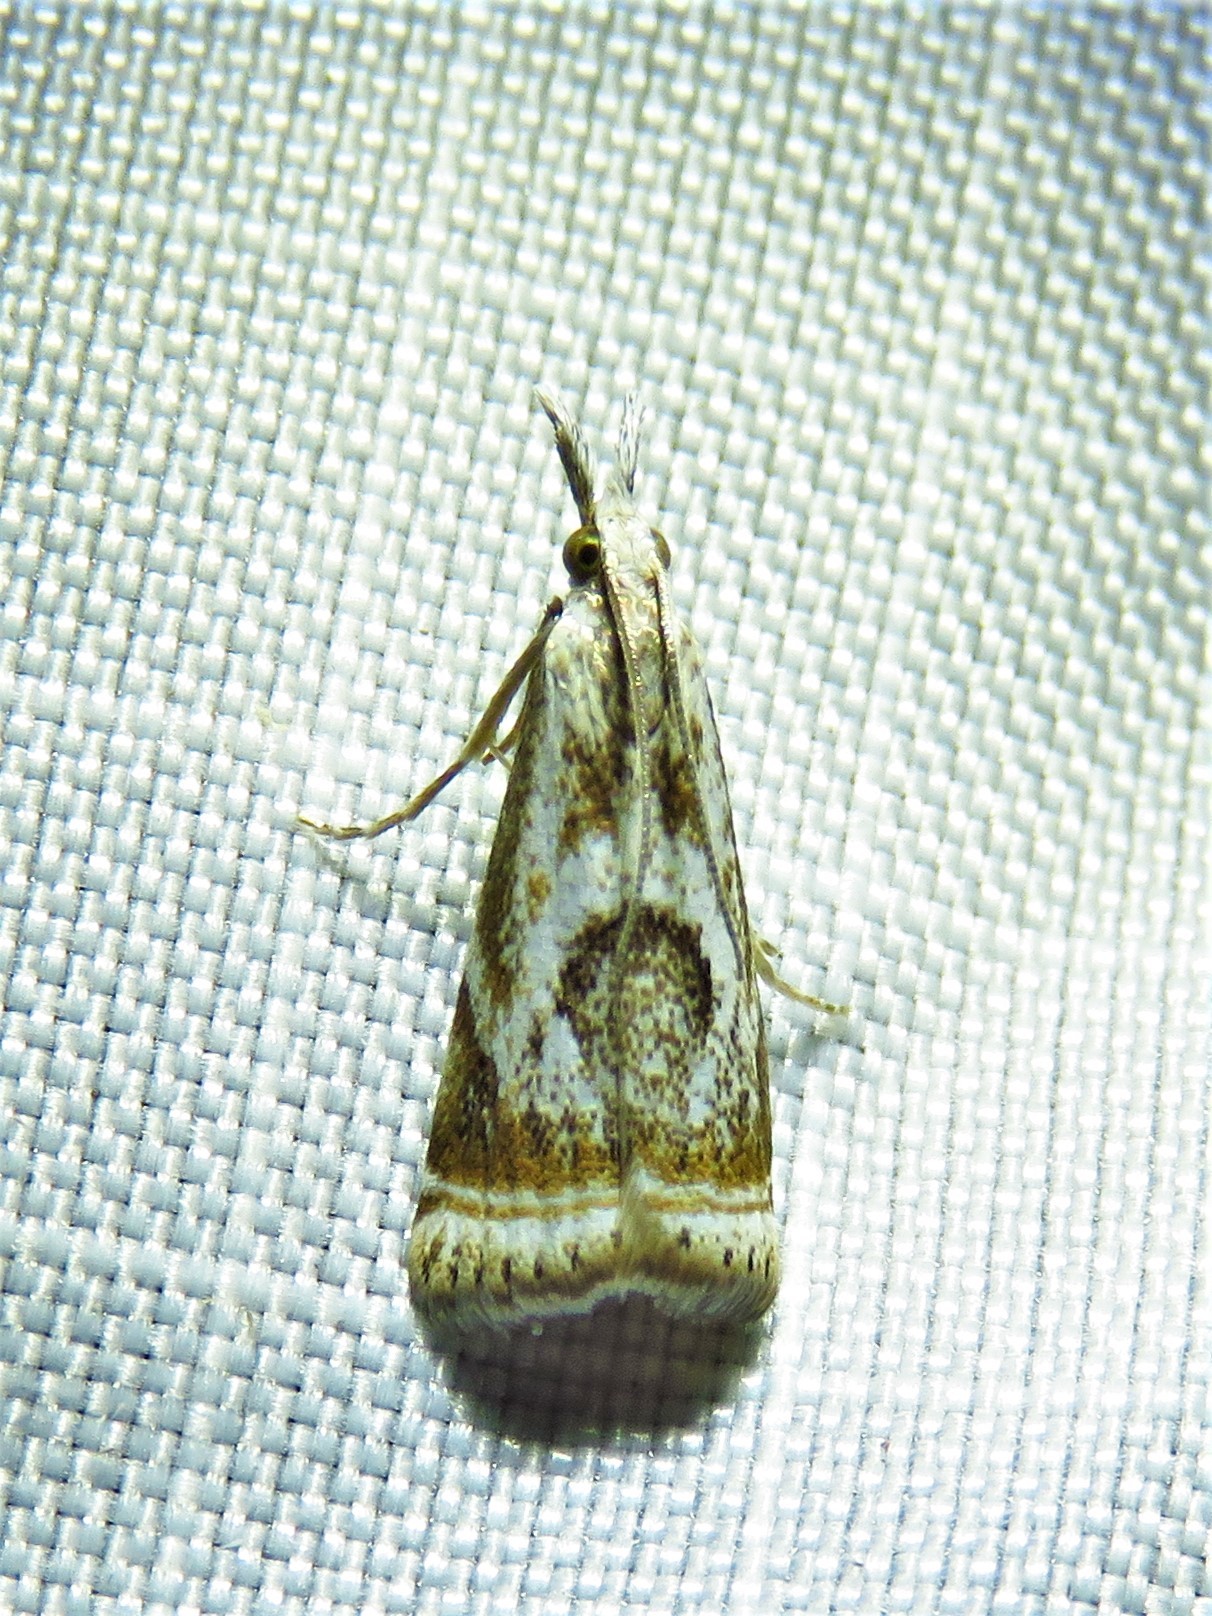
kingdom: Animalia
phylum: Arthropoda
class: Insecta
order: Lepidoptera
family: Crambidae
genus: Microcrambus
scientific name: Microcrambus elegans
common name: Elegant grass-veneer
